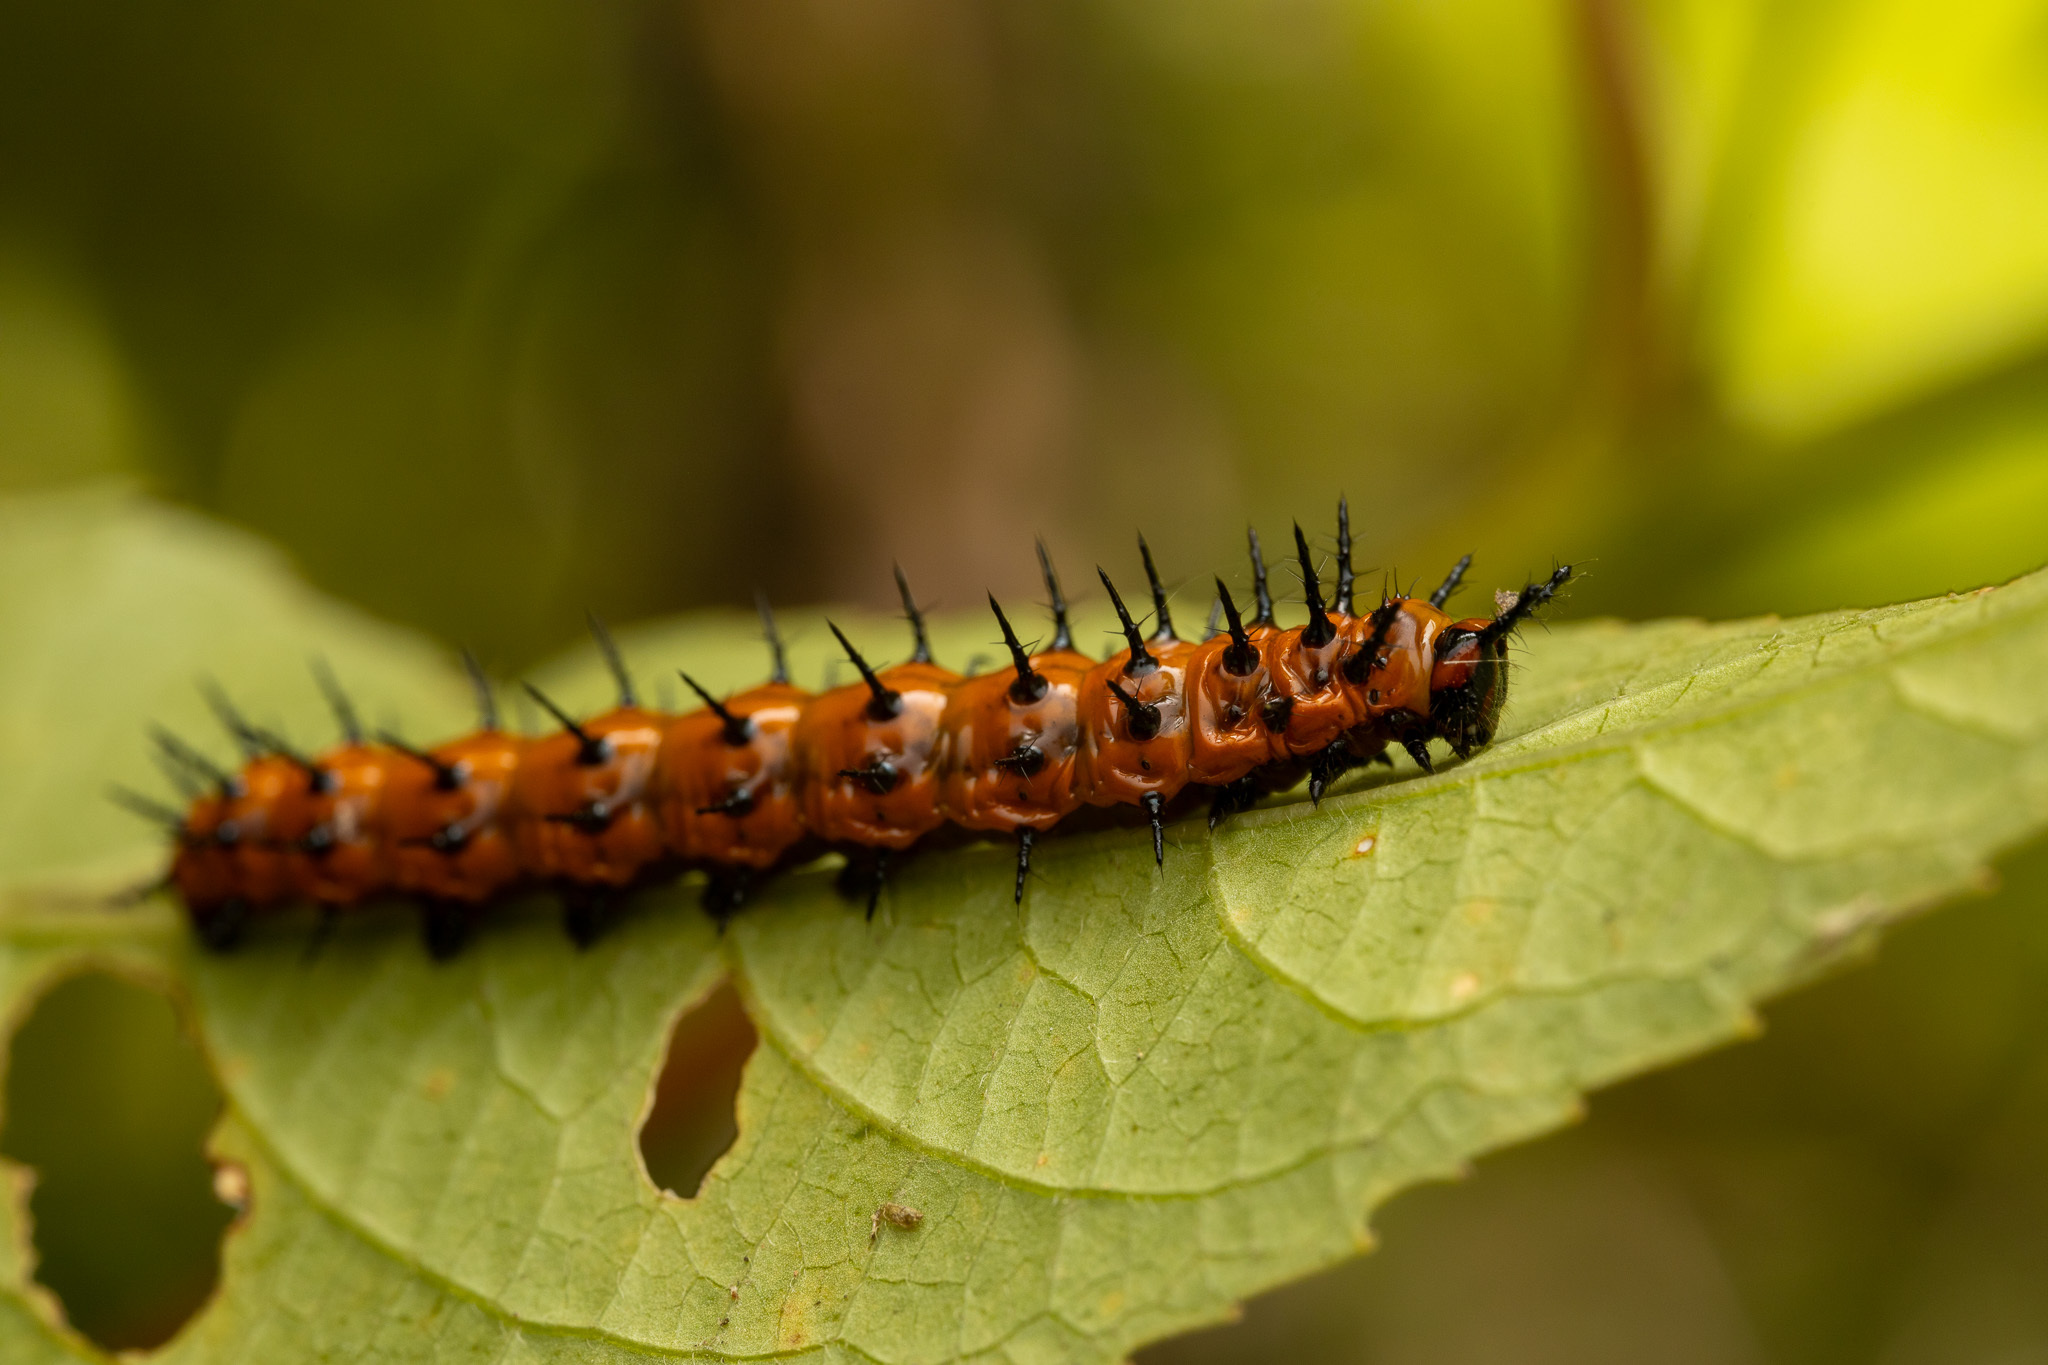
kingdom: Animalia
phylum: Arthropoda
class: Insecta
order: Lepidoptera
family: Nymphalidae
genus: Dione
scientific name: Dione vanillae
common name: Gulf fritillary
